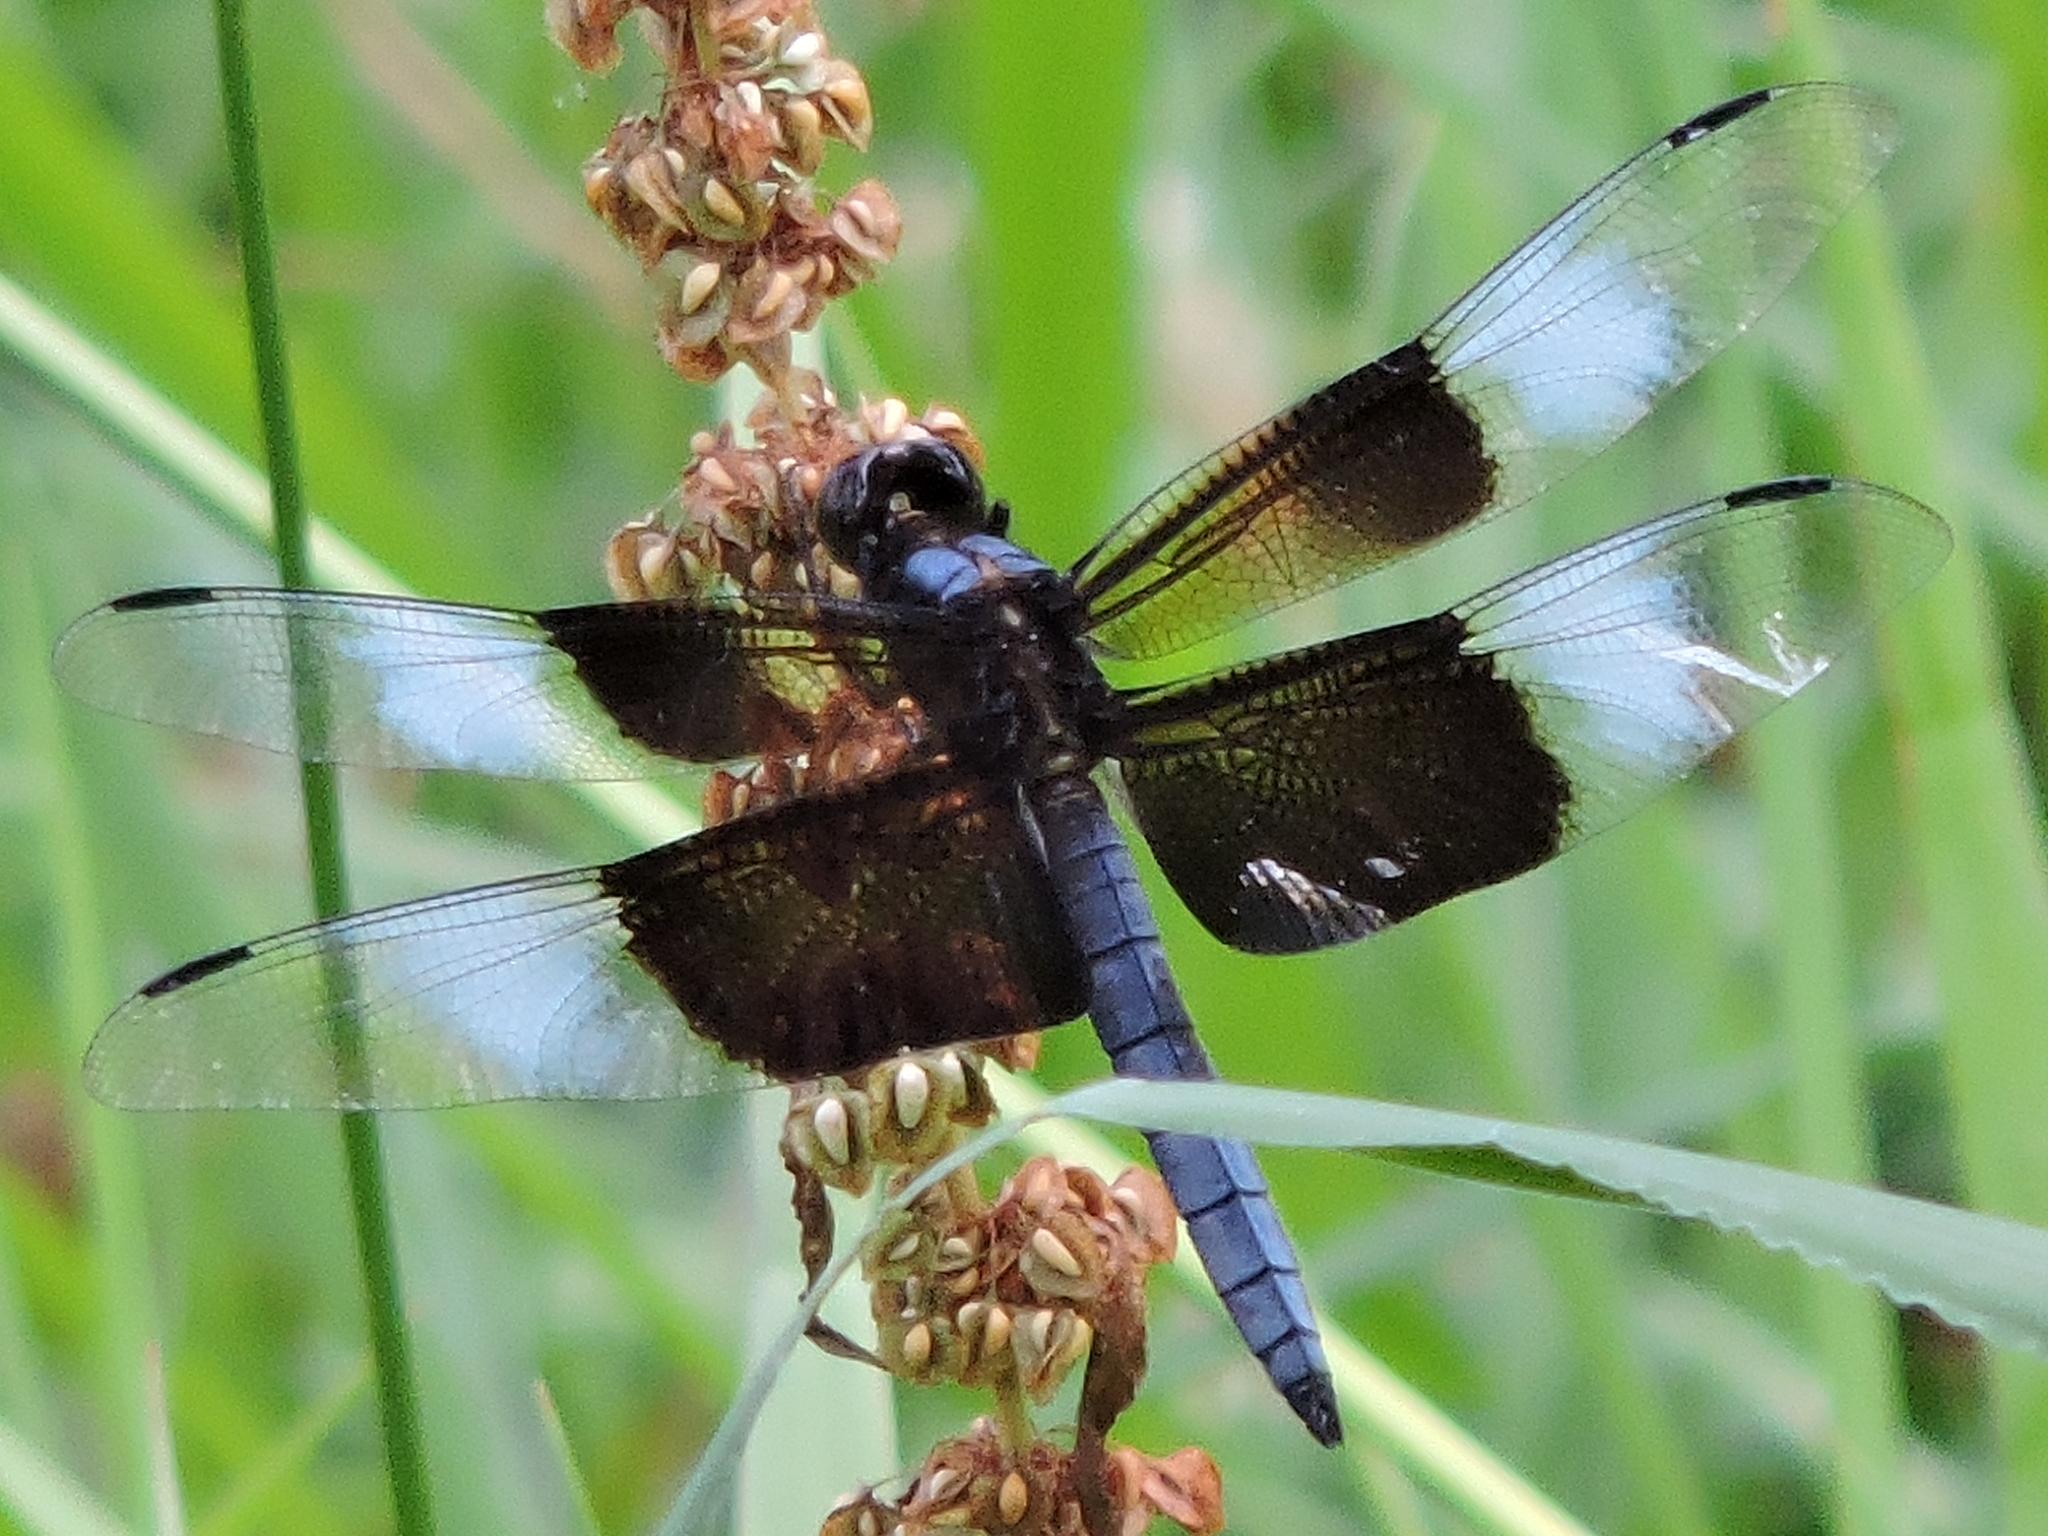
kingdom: Animalia
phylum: Arthropoda
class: Insecta
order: Odonata
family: Libellulidae
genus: Libellula
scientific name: Libellula luctuosa
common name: Widow skimmer
